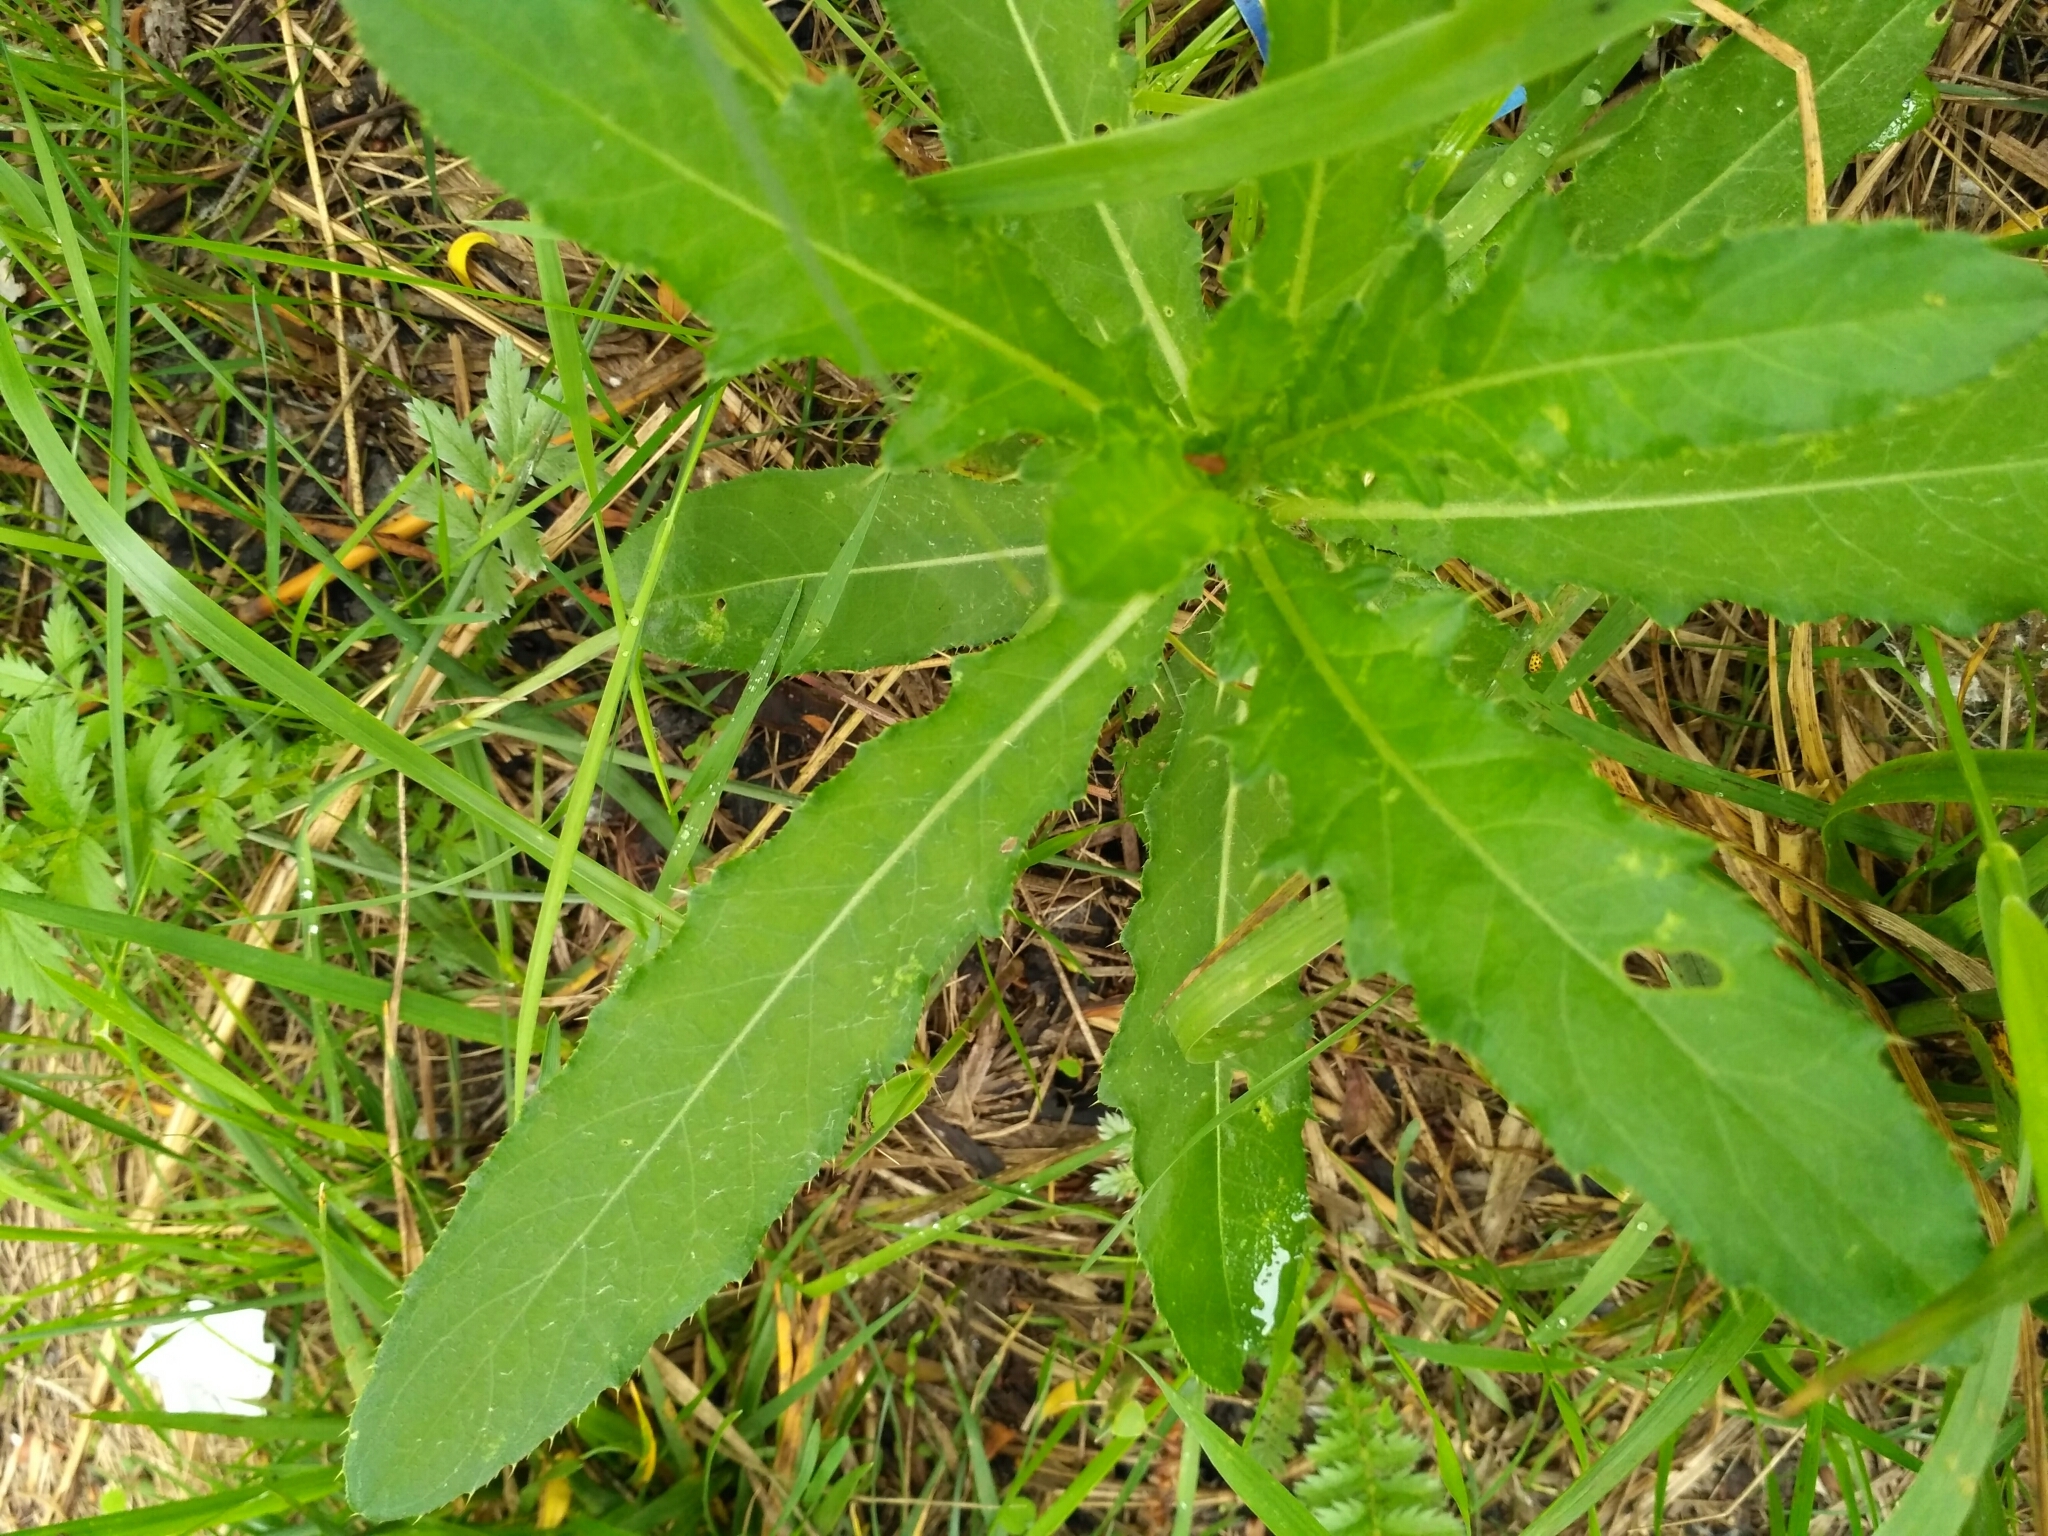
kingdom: Plantae
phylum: Tracheophyta
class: Magnoliopsida
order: Asterales
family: Asteraceae
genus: Cirsium
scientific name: Cirsium arvense
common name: Creeping thistle
